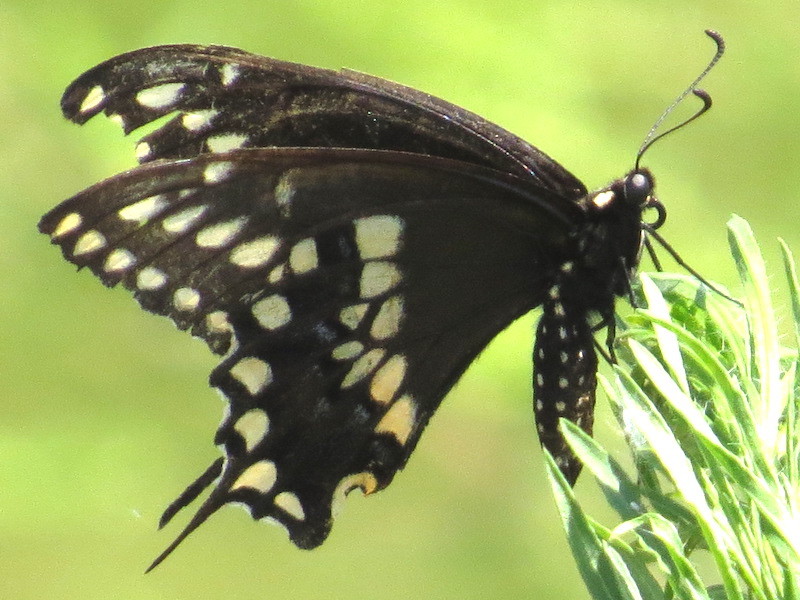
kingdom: Animalia
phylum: Arthropoda
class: Insecta
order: Lepidoptera
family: Papilionidae
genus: Papilio
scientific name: Papilio polyxenes
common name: Black swallowtail
